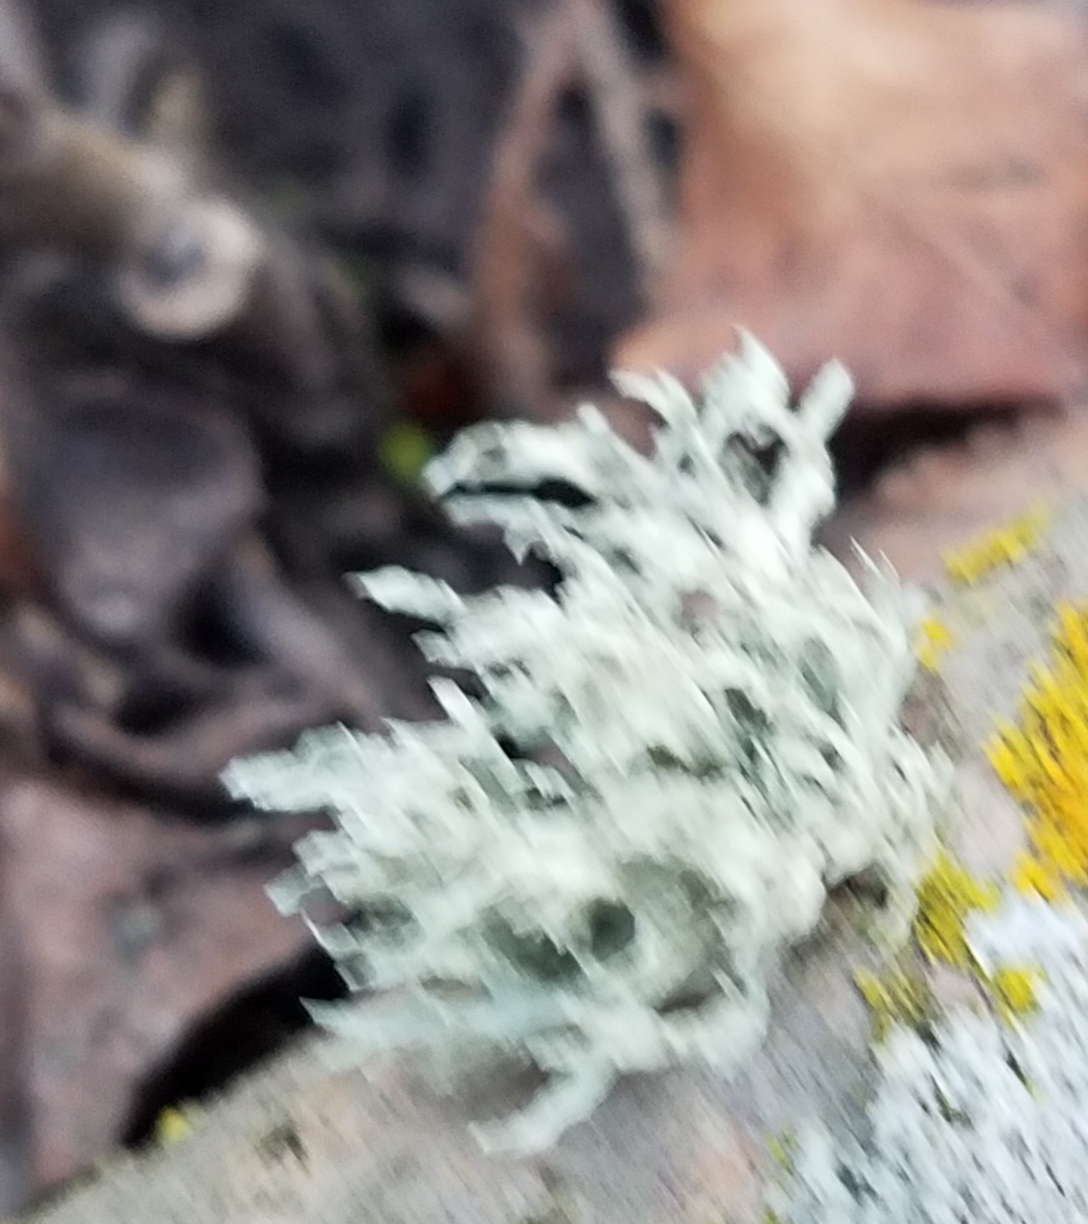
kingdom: Fungi
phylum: Ascomycota
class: Lecanoromycetes
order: Lecanorales
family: Ramalinaceae
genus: Ramalina
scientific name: Ramalina americana
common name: Sinewed bush lichen
